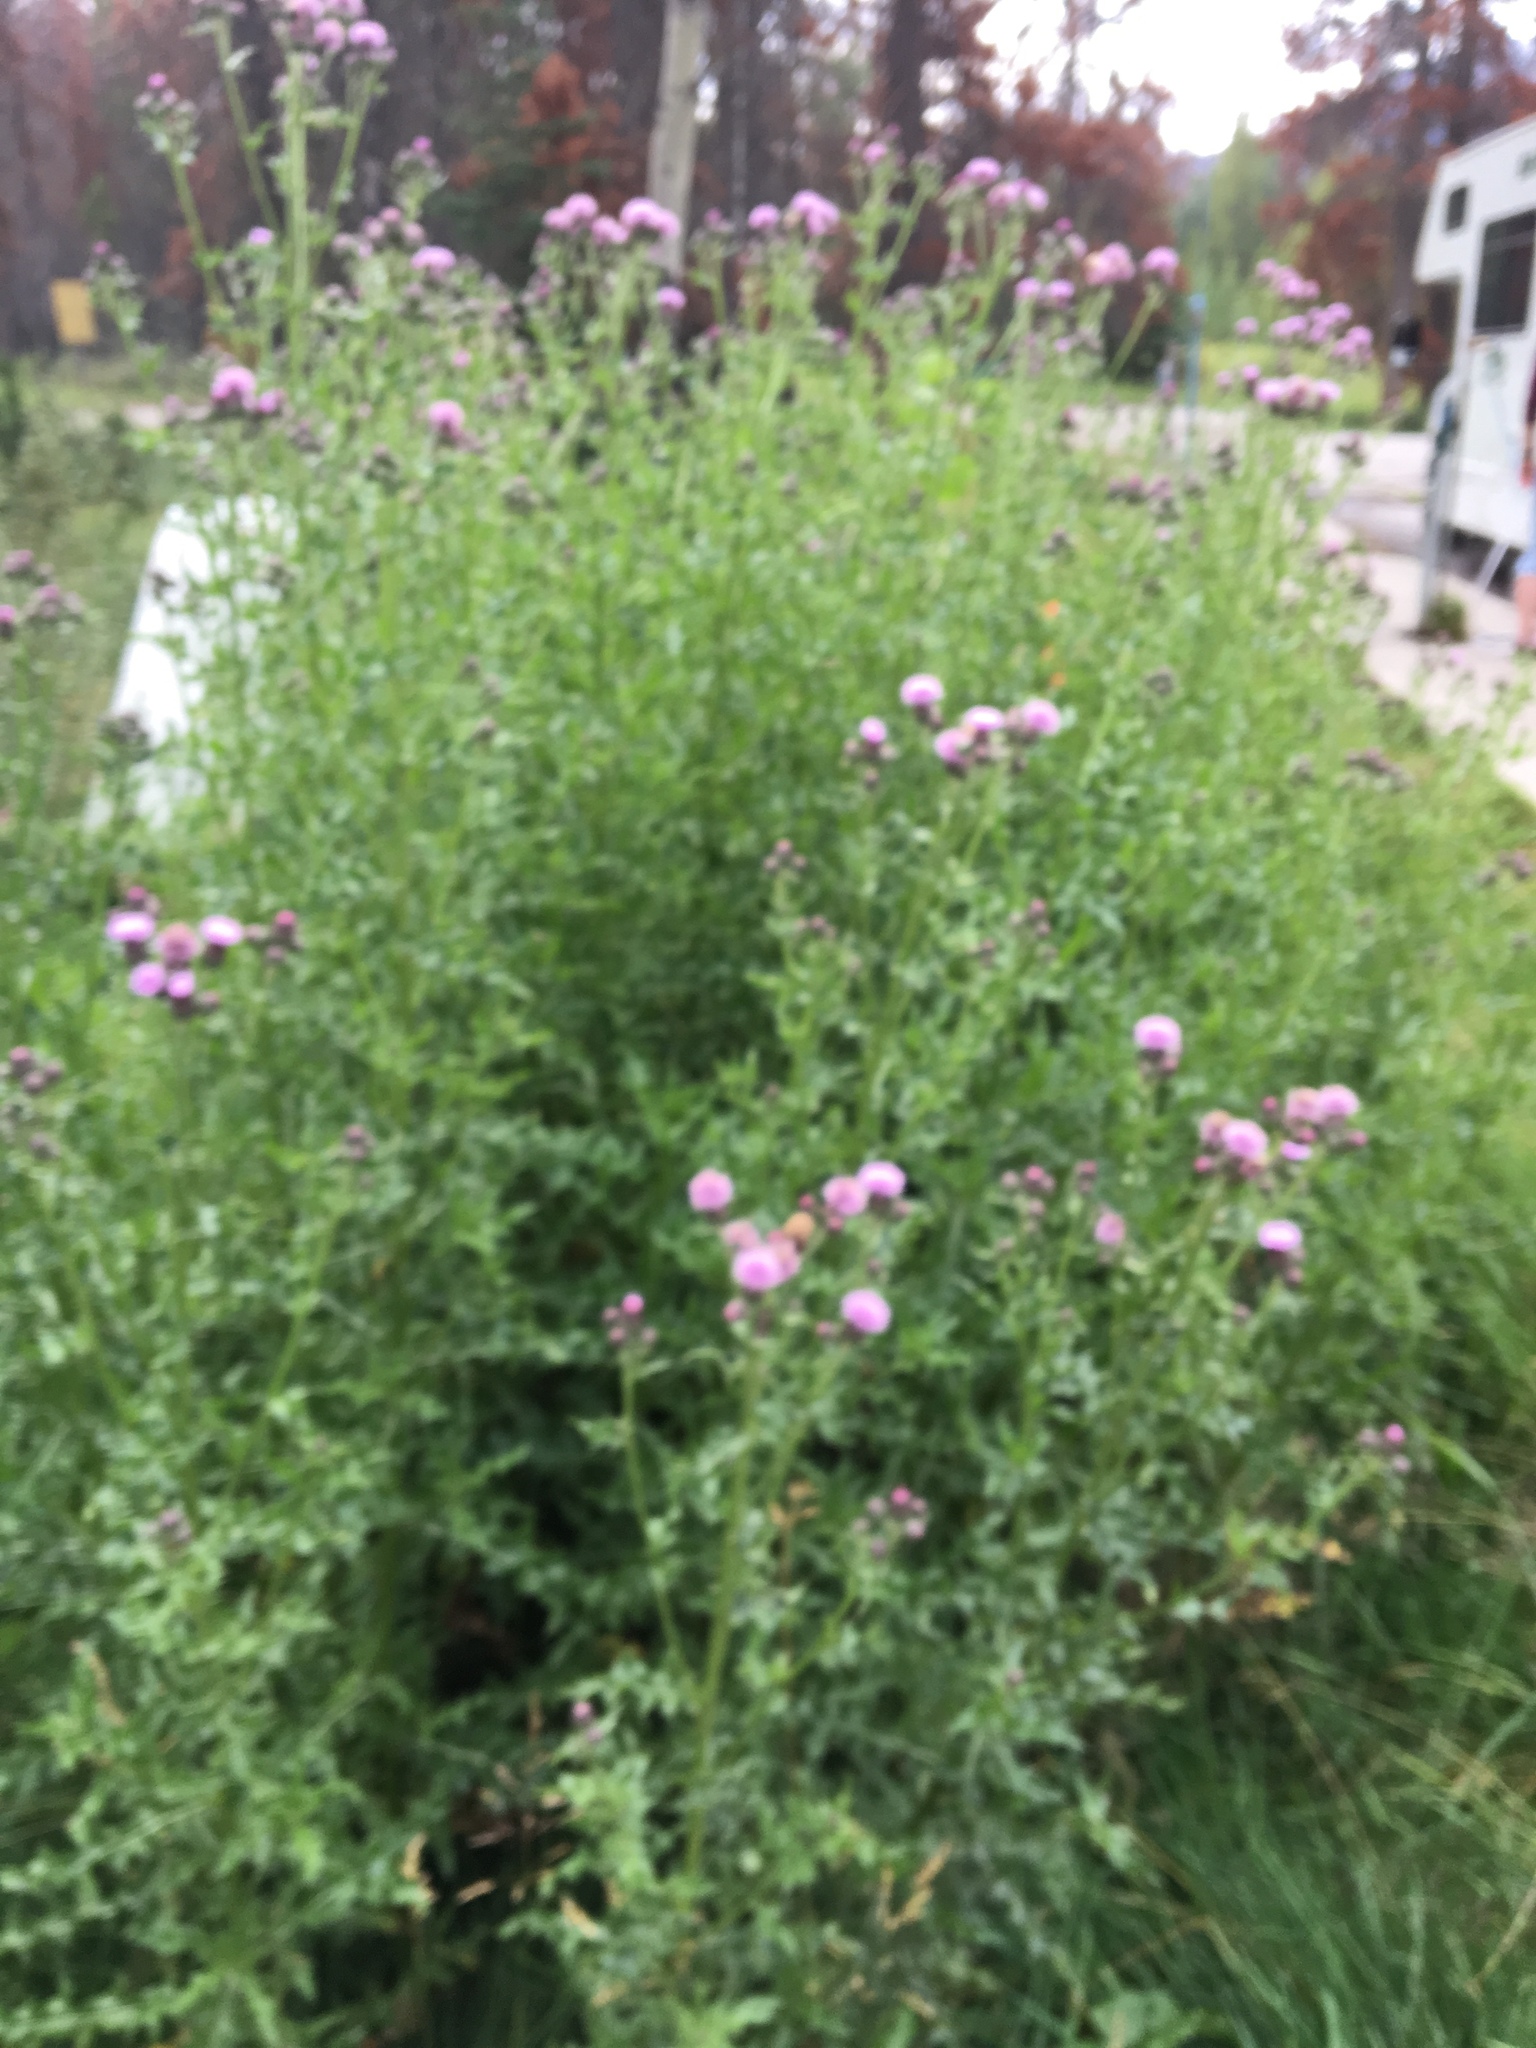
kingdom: Plantae
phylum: Tracheophyta
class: Magnoliopsida
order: Asterales
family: Asteraceae
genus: Cirsium
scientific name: Cirsium arvense
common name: Creeping thistle
